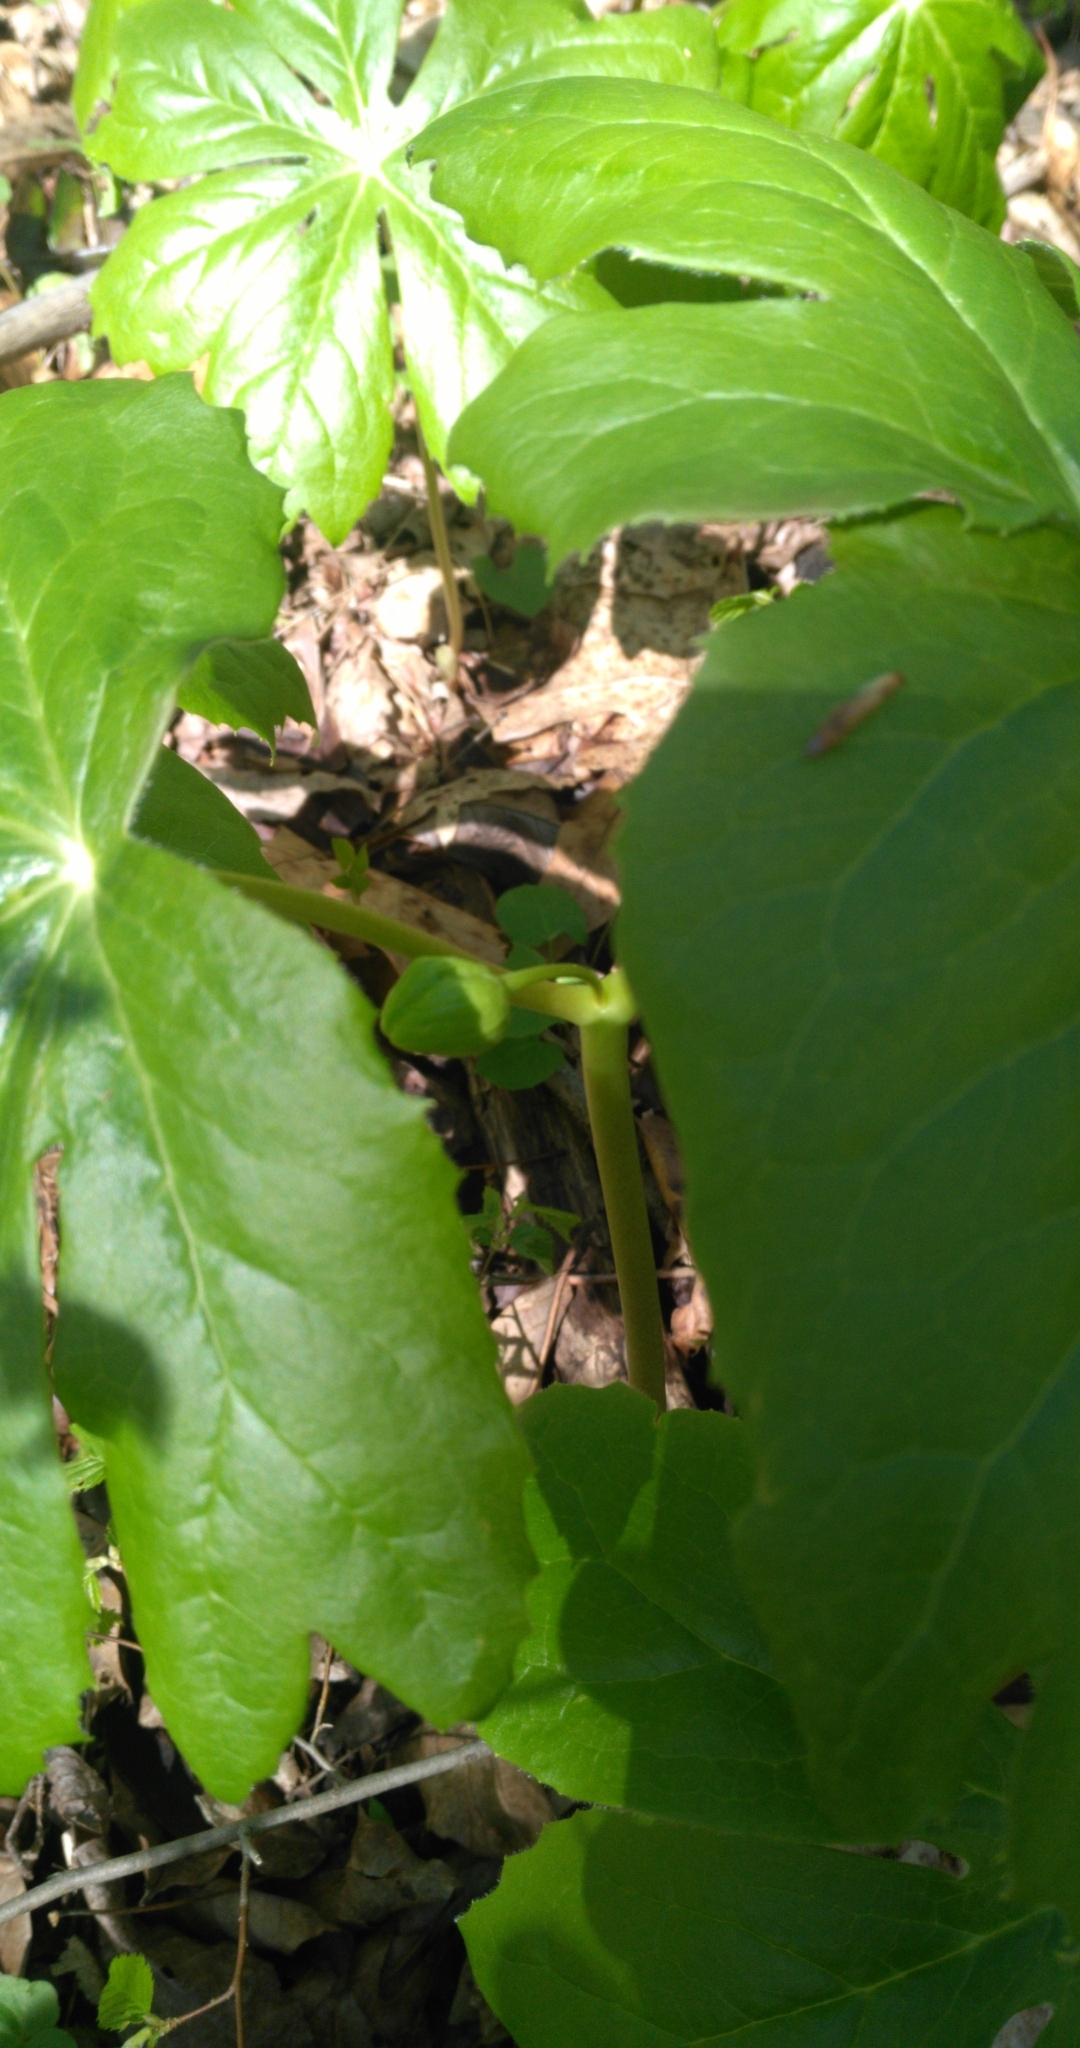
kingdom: Plantae
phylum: Tracheophyta
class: Magnoliopsida
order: Ranunculales
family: Berberidaceae
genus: Podophyllum
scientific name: Podophyllum peltatum
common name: Wild mandrake
